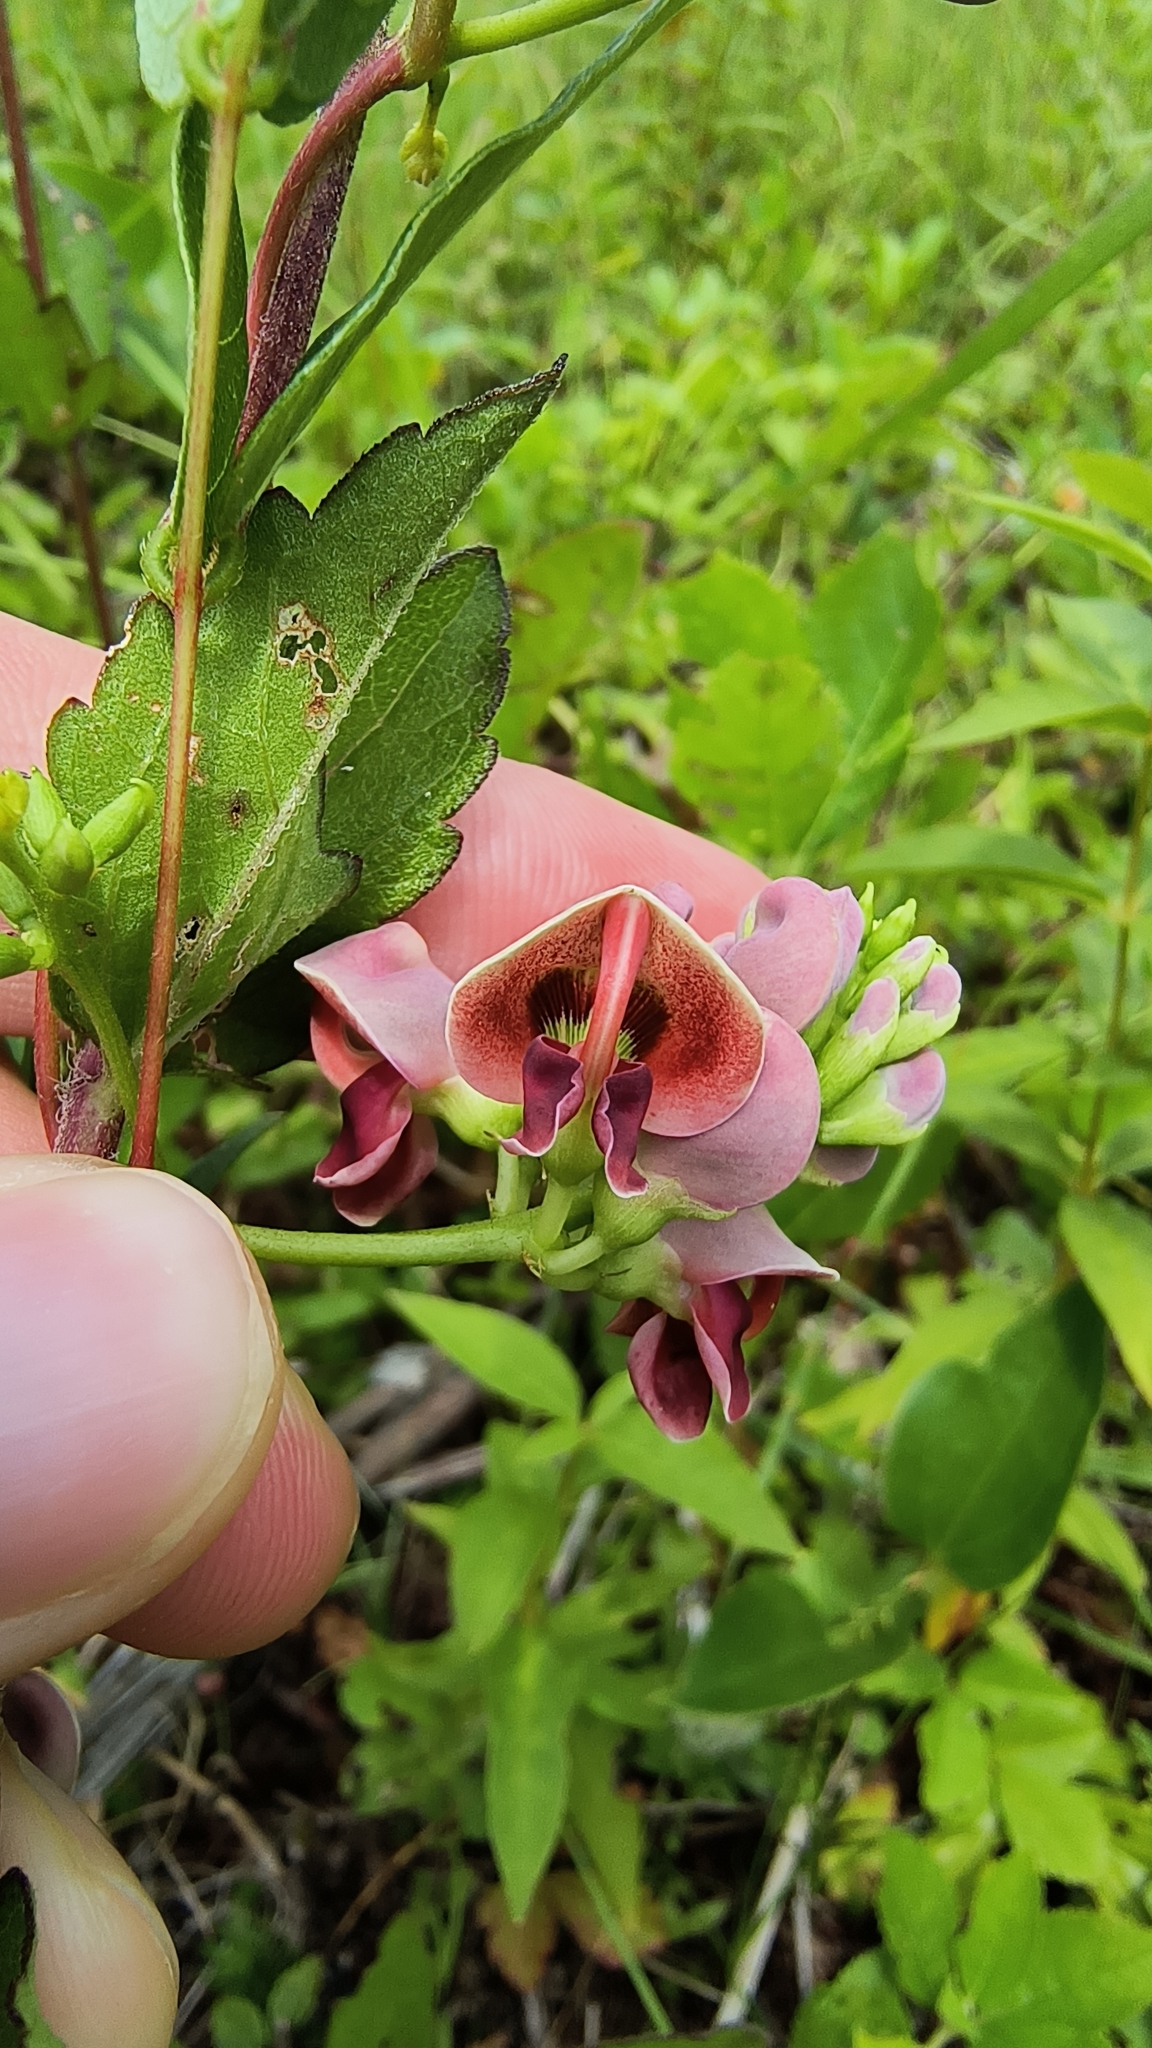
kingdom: Plantae
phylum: Tracheophyta
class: Magnoliopsida
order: Fabales
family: Fabaceae
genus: Apios
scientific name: Apios americana
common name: American potato-bean
